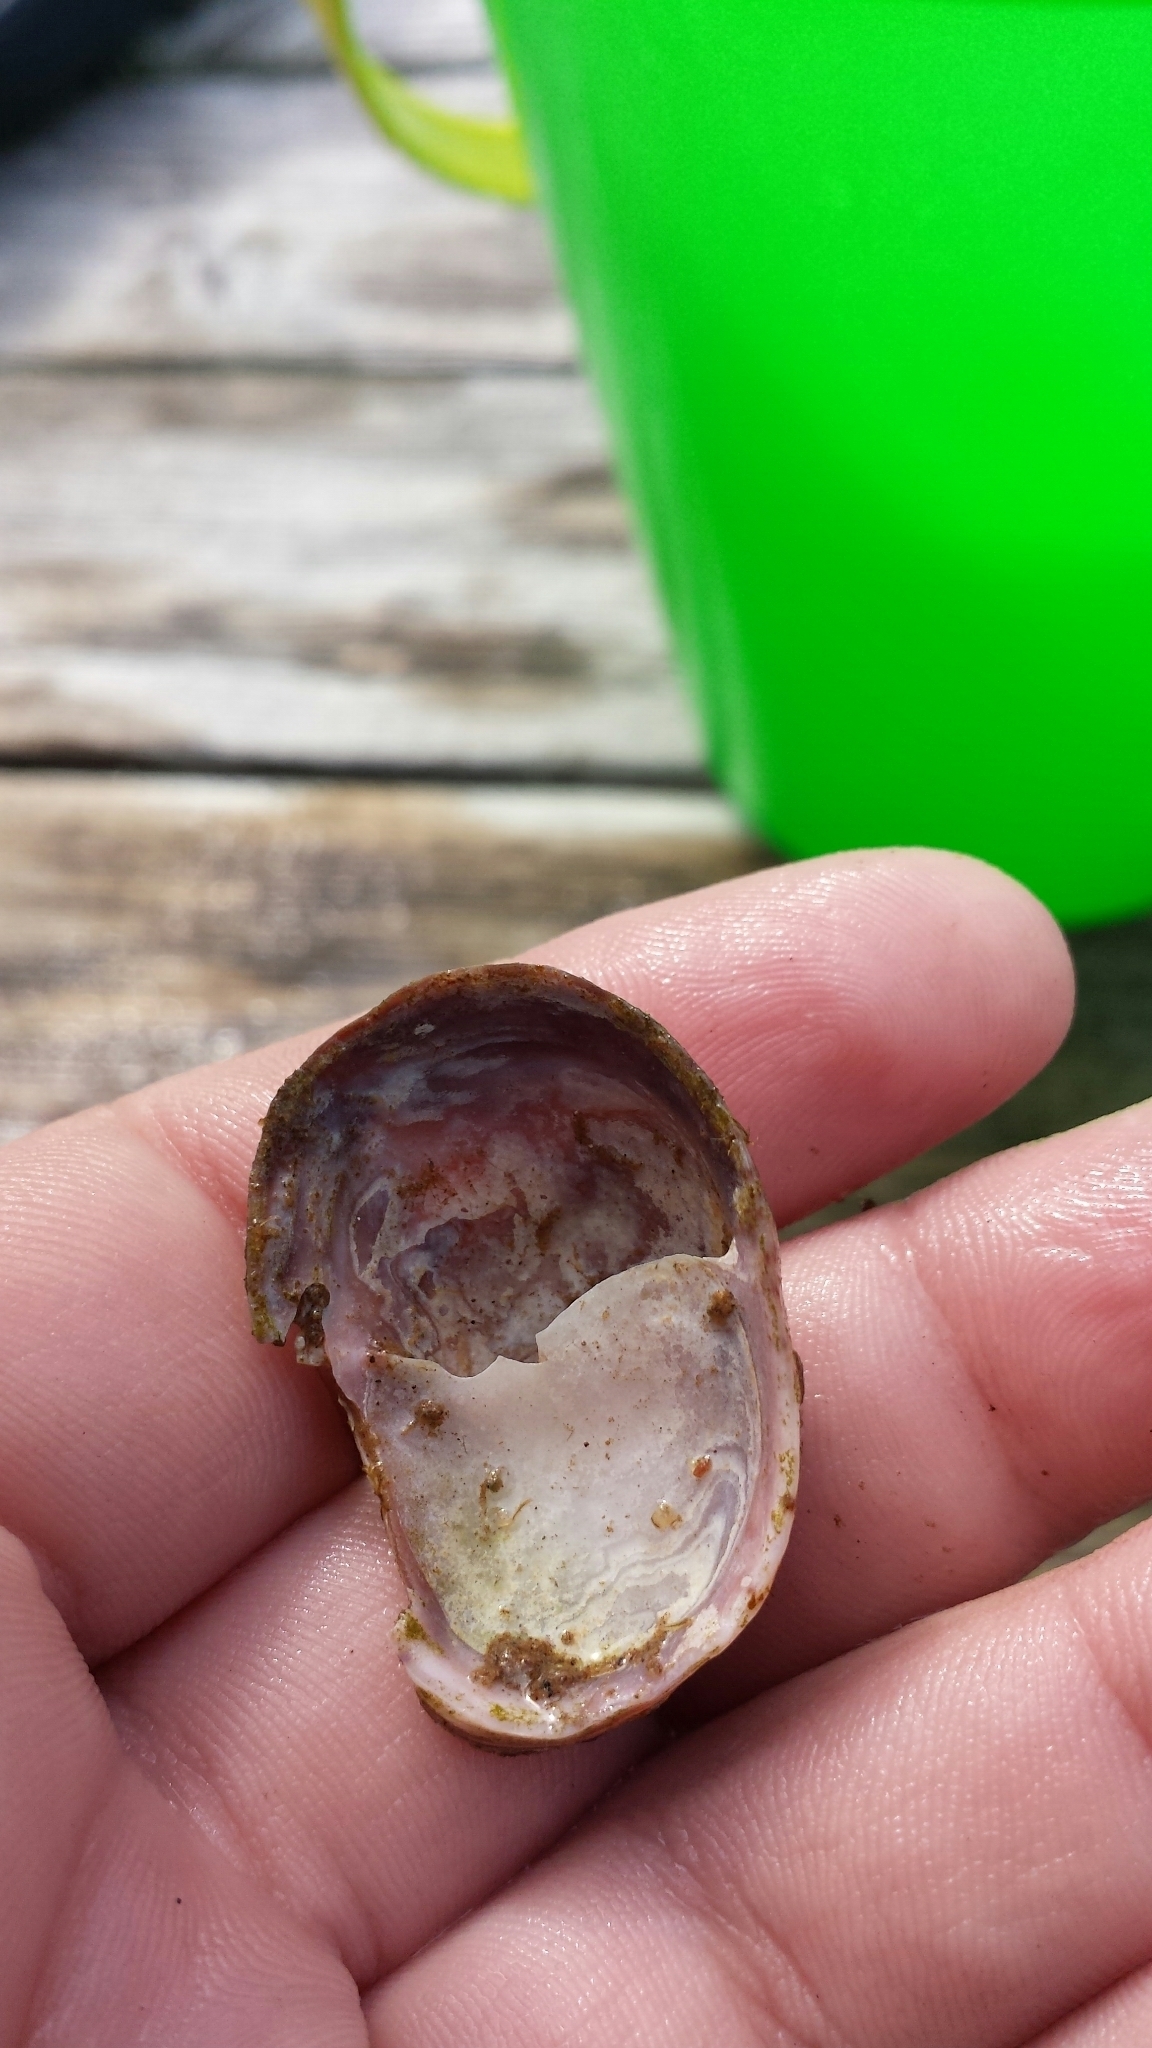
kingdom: Animalia
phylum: Mollusca
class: Gastropoda
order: Littorinimorpha
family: Calyptraeidae
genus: Crepidula
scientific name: Crepidula fornicata
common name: Slipper limpet
